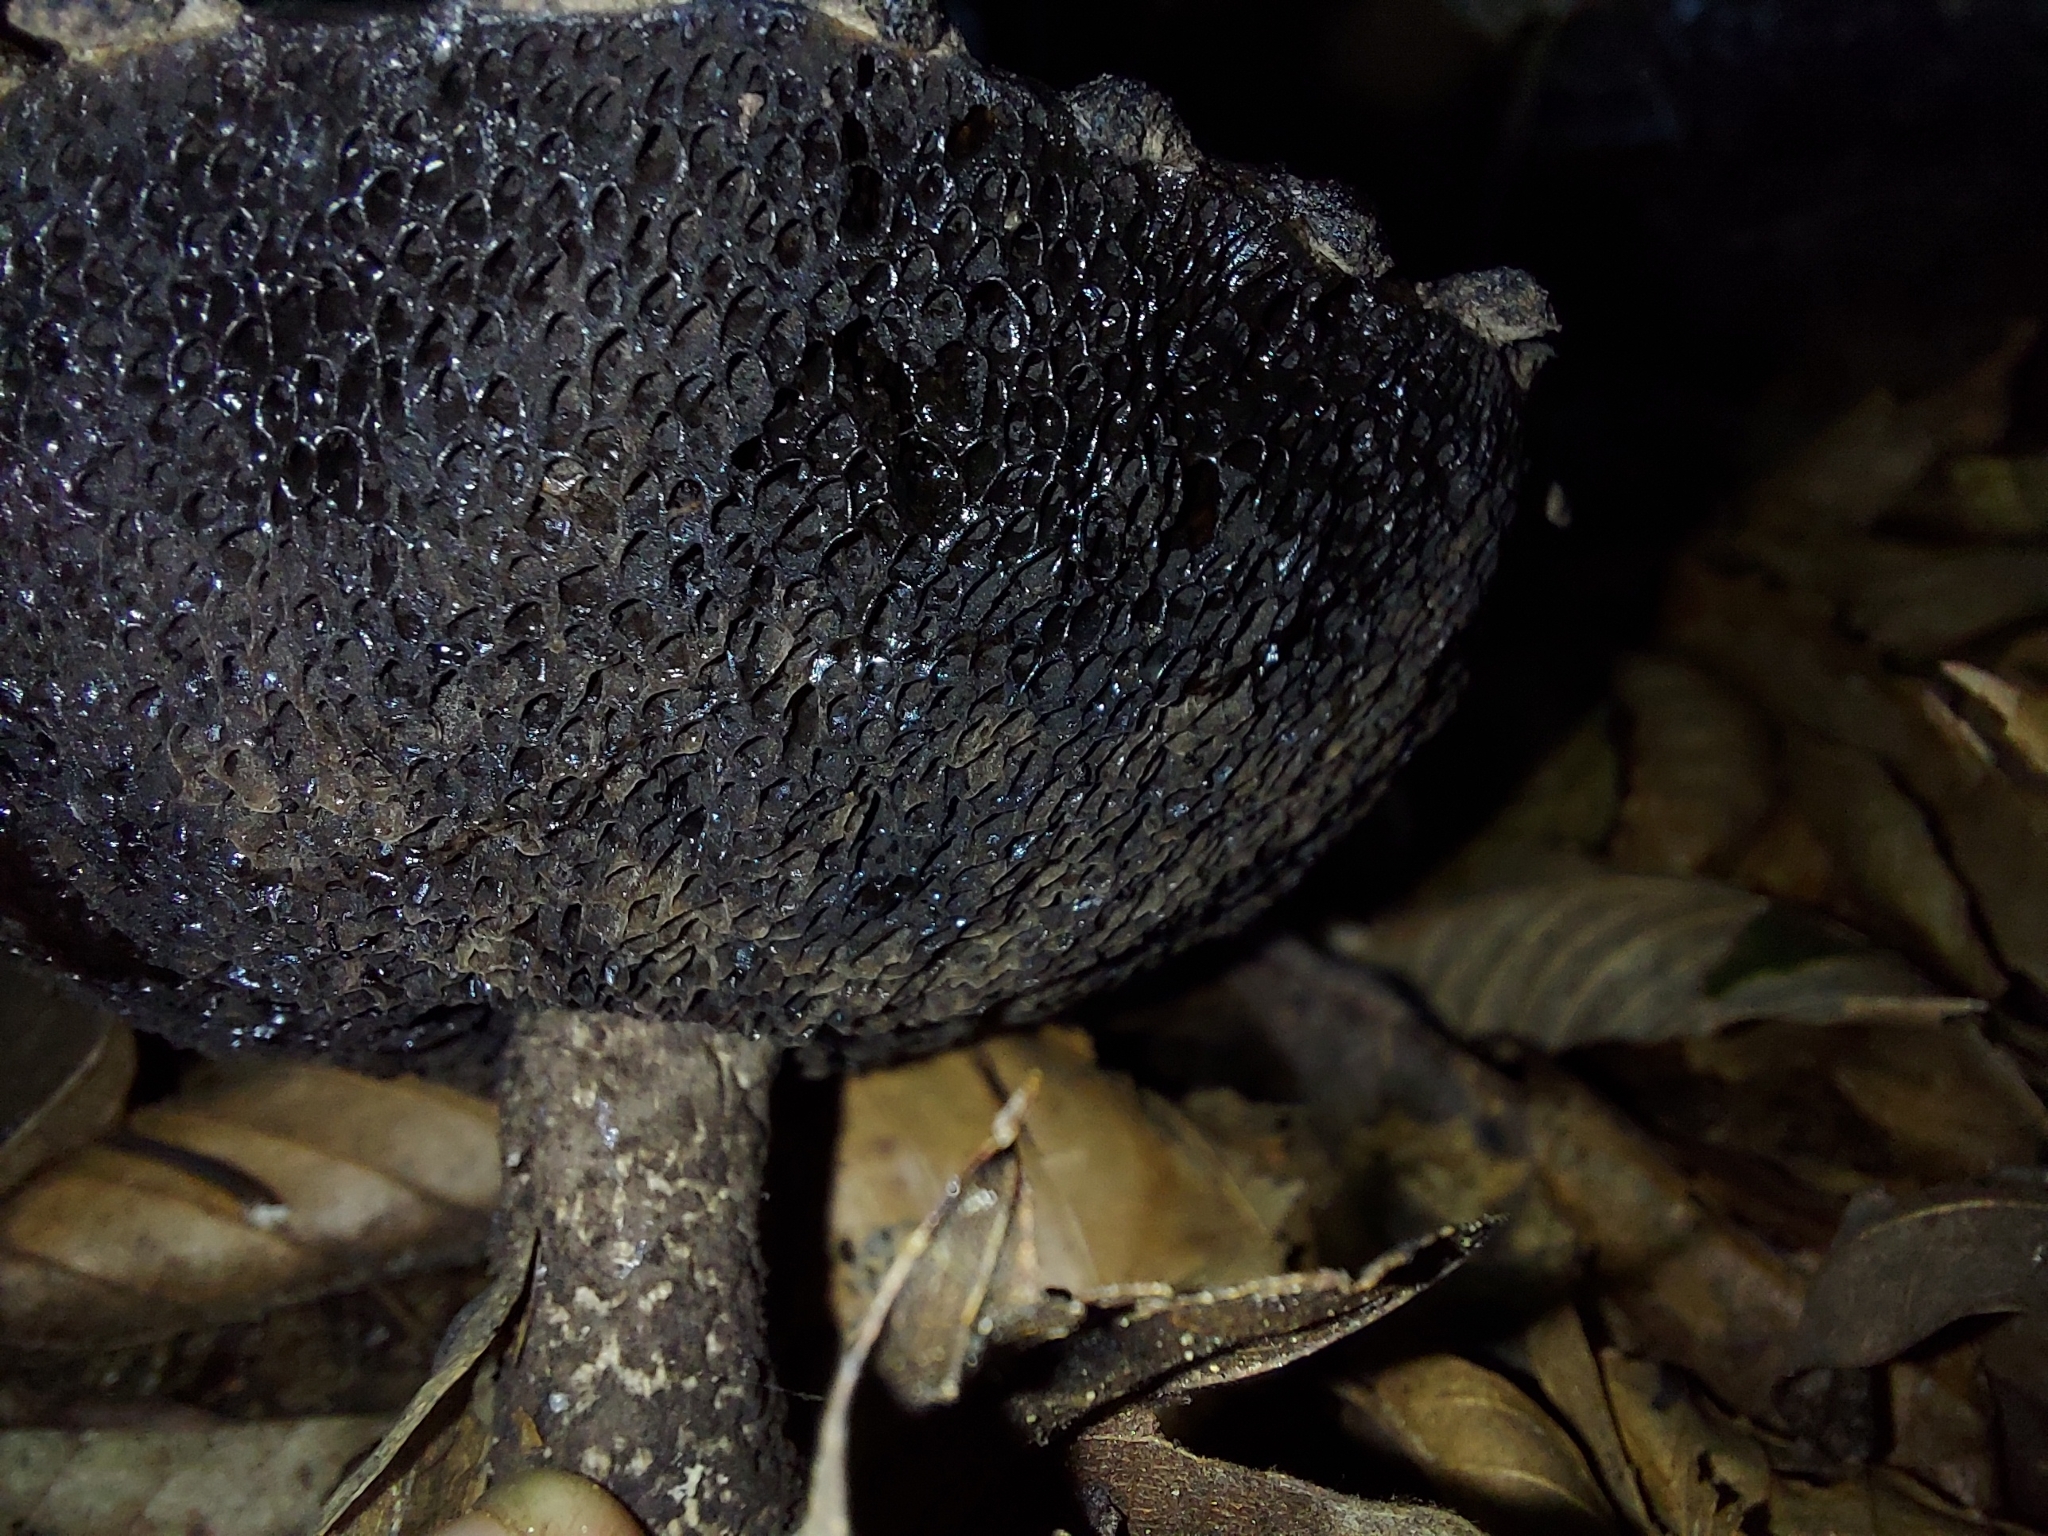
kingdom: Fungi
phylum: Basidiomycota
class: Agaricomycetes
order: Boletales
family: Boletaceae
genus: Strobilomyces
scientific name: Strobilomyces strobilaceus
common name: Old man of the woods
